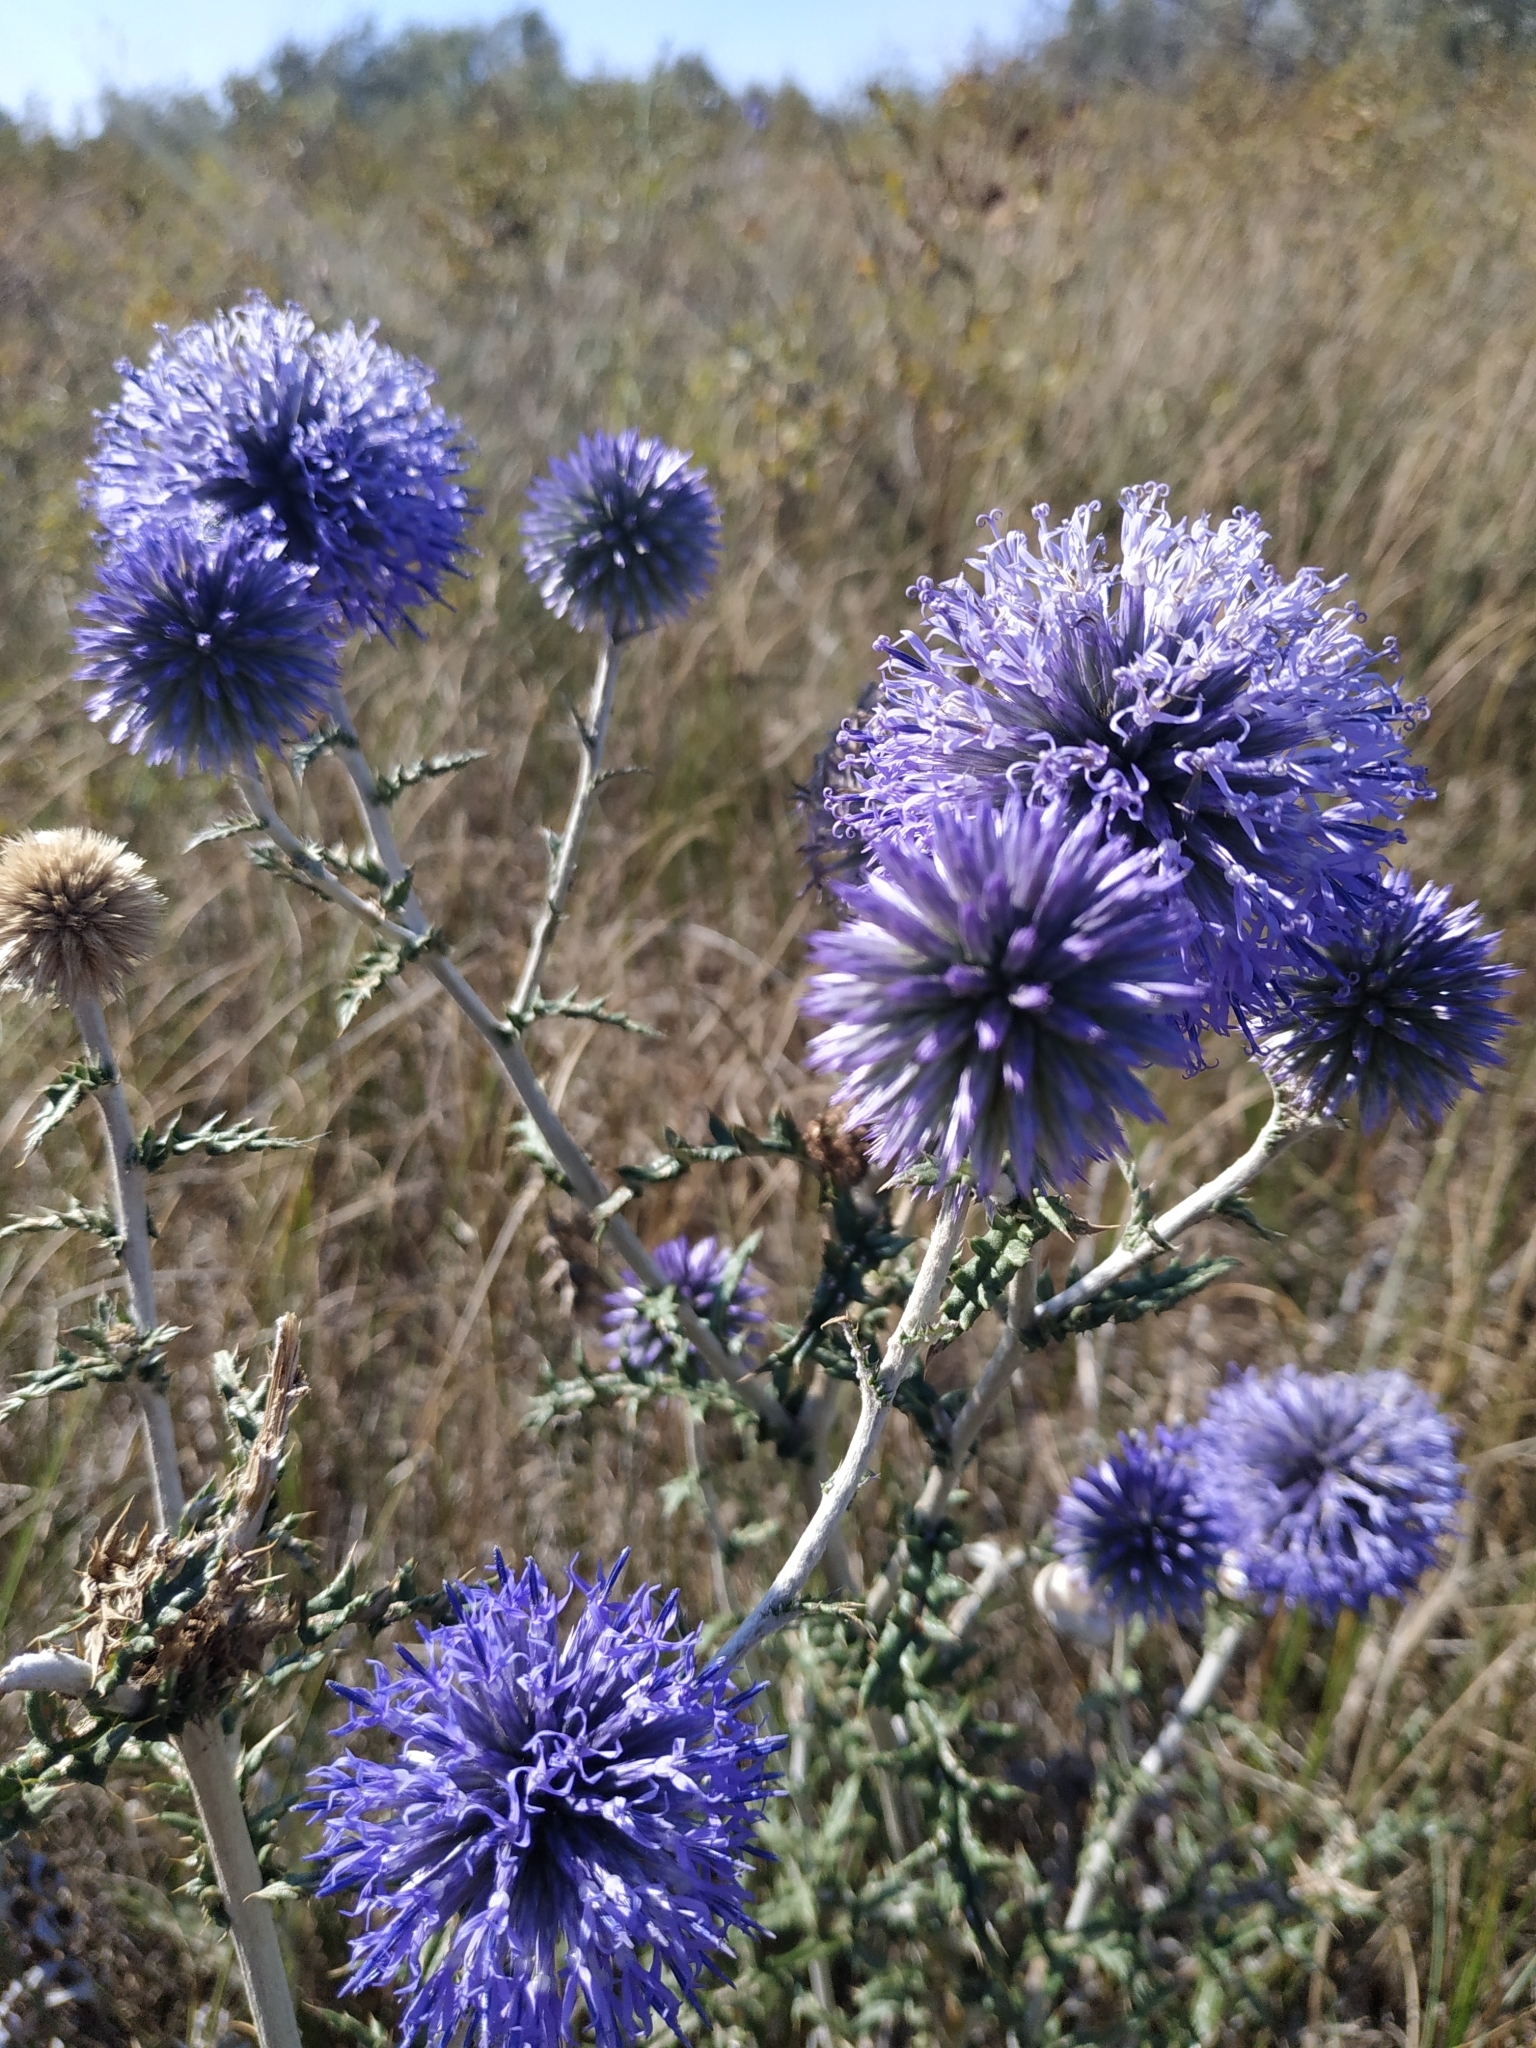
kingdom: Plantae
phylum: Tracheophyta
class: Magnoliopsida
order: Asterales
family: Asteraceae
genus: Echinops
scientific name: Echinops ritro
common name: Globe thistle
